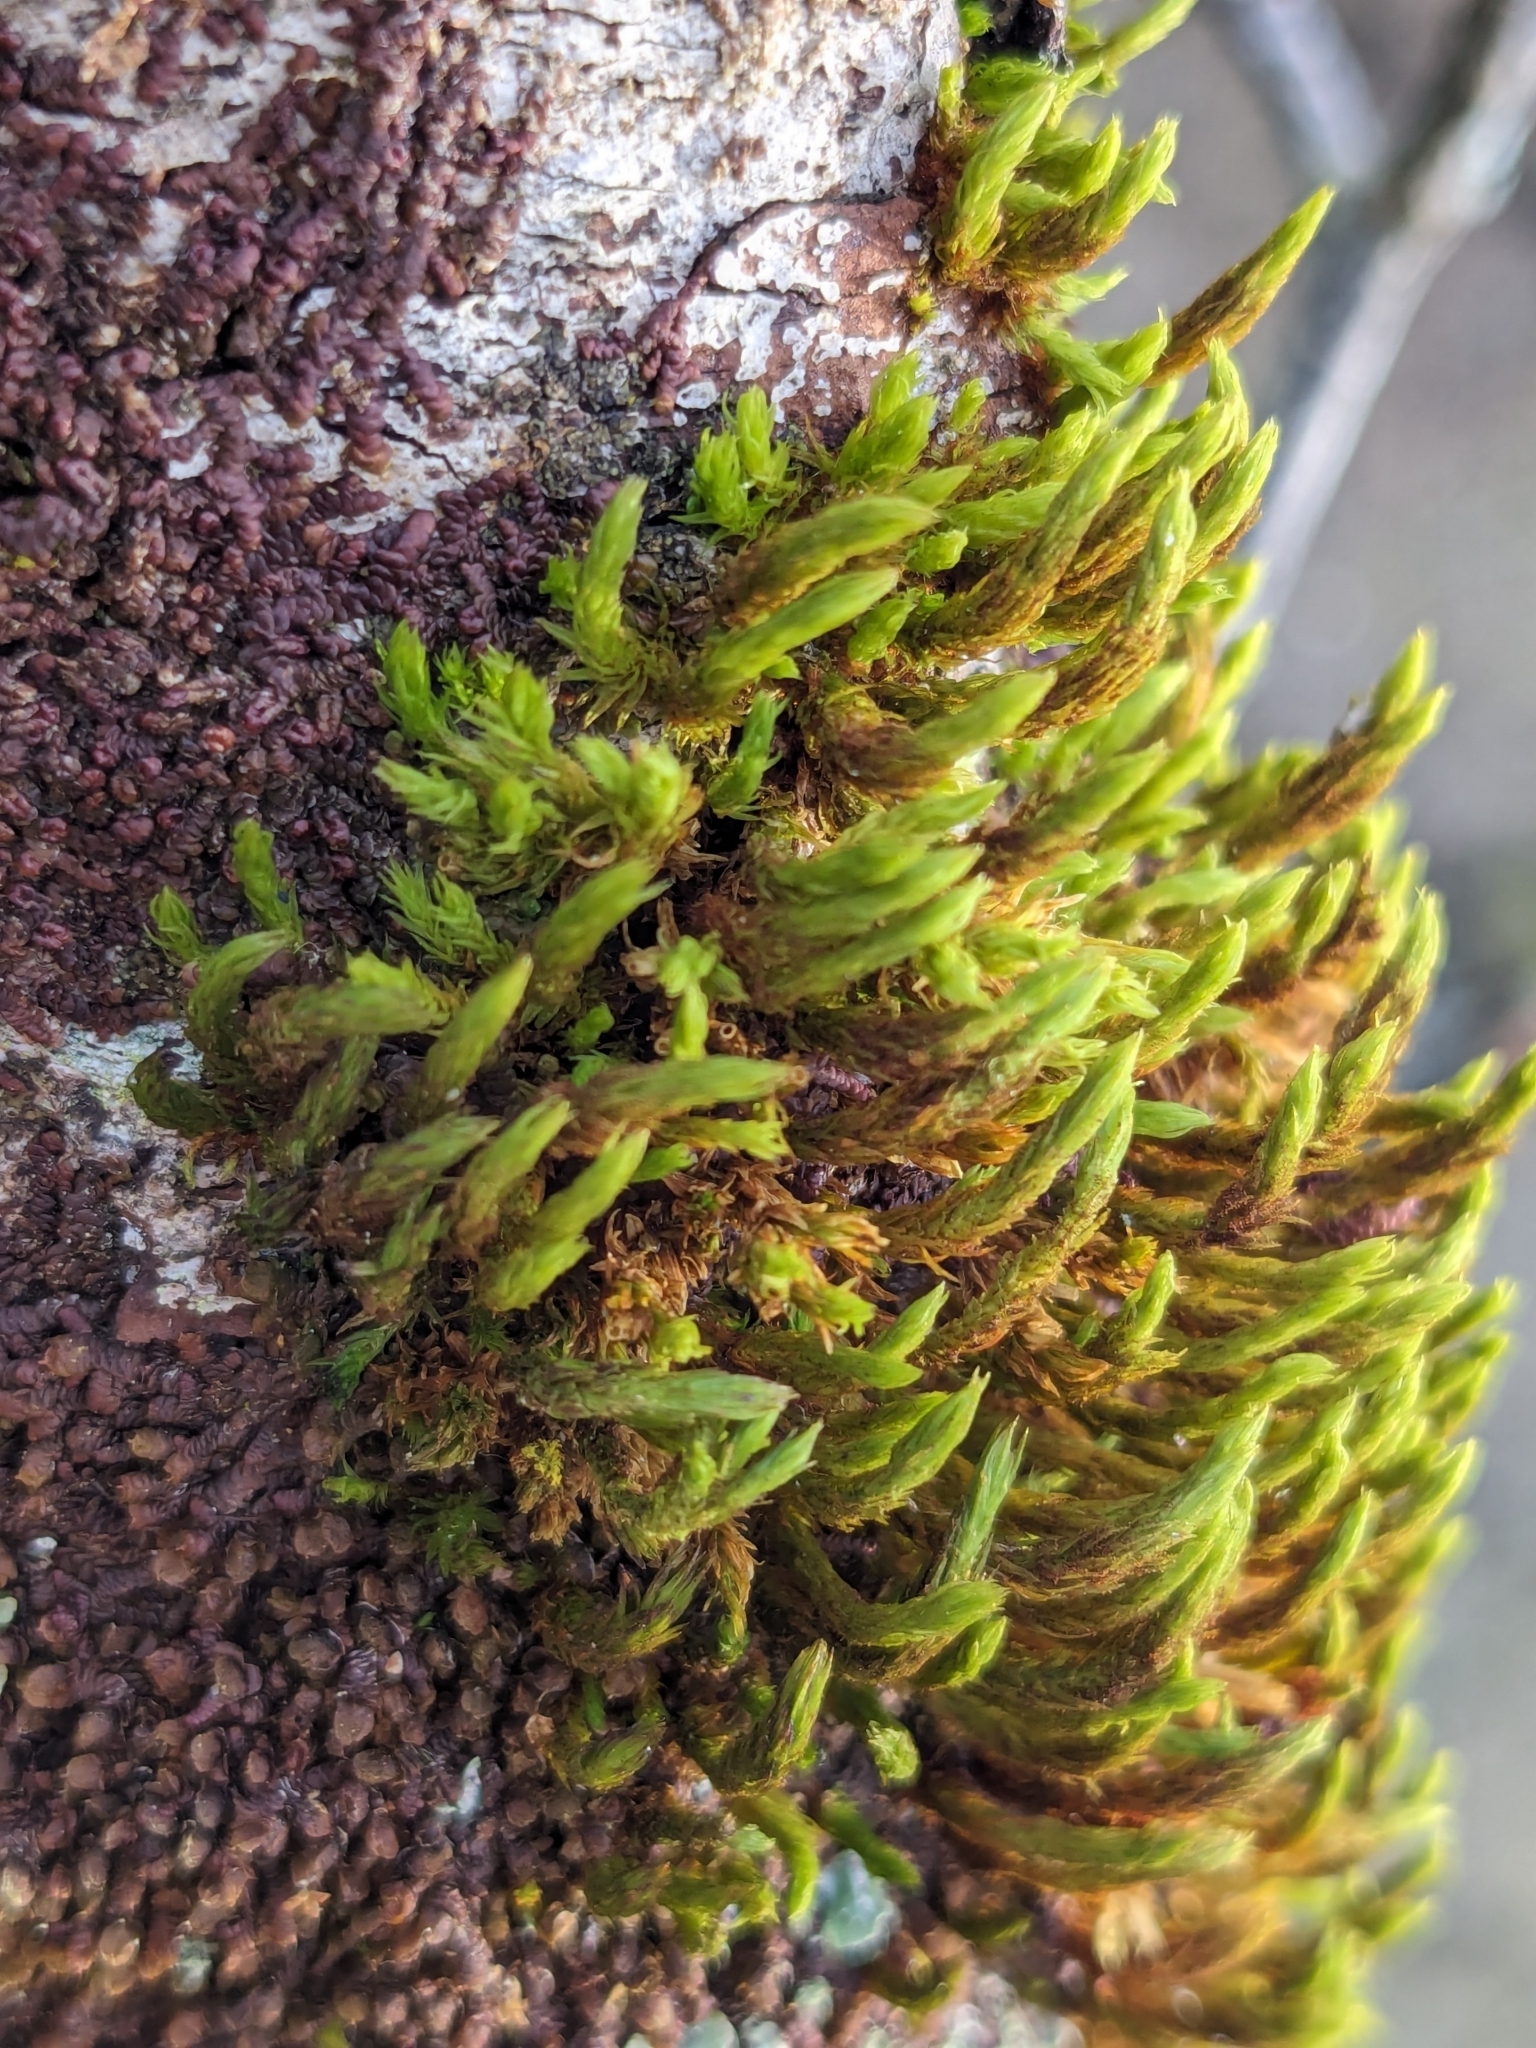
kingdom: Plantae
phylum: Bryophyta
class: Bryopsida
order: Orthotrichales
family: Orthotrichaceae
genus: Pulvigera
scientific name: Pulvigera lyellii
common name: Lyell's bristle-moss
